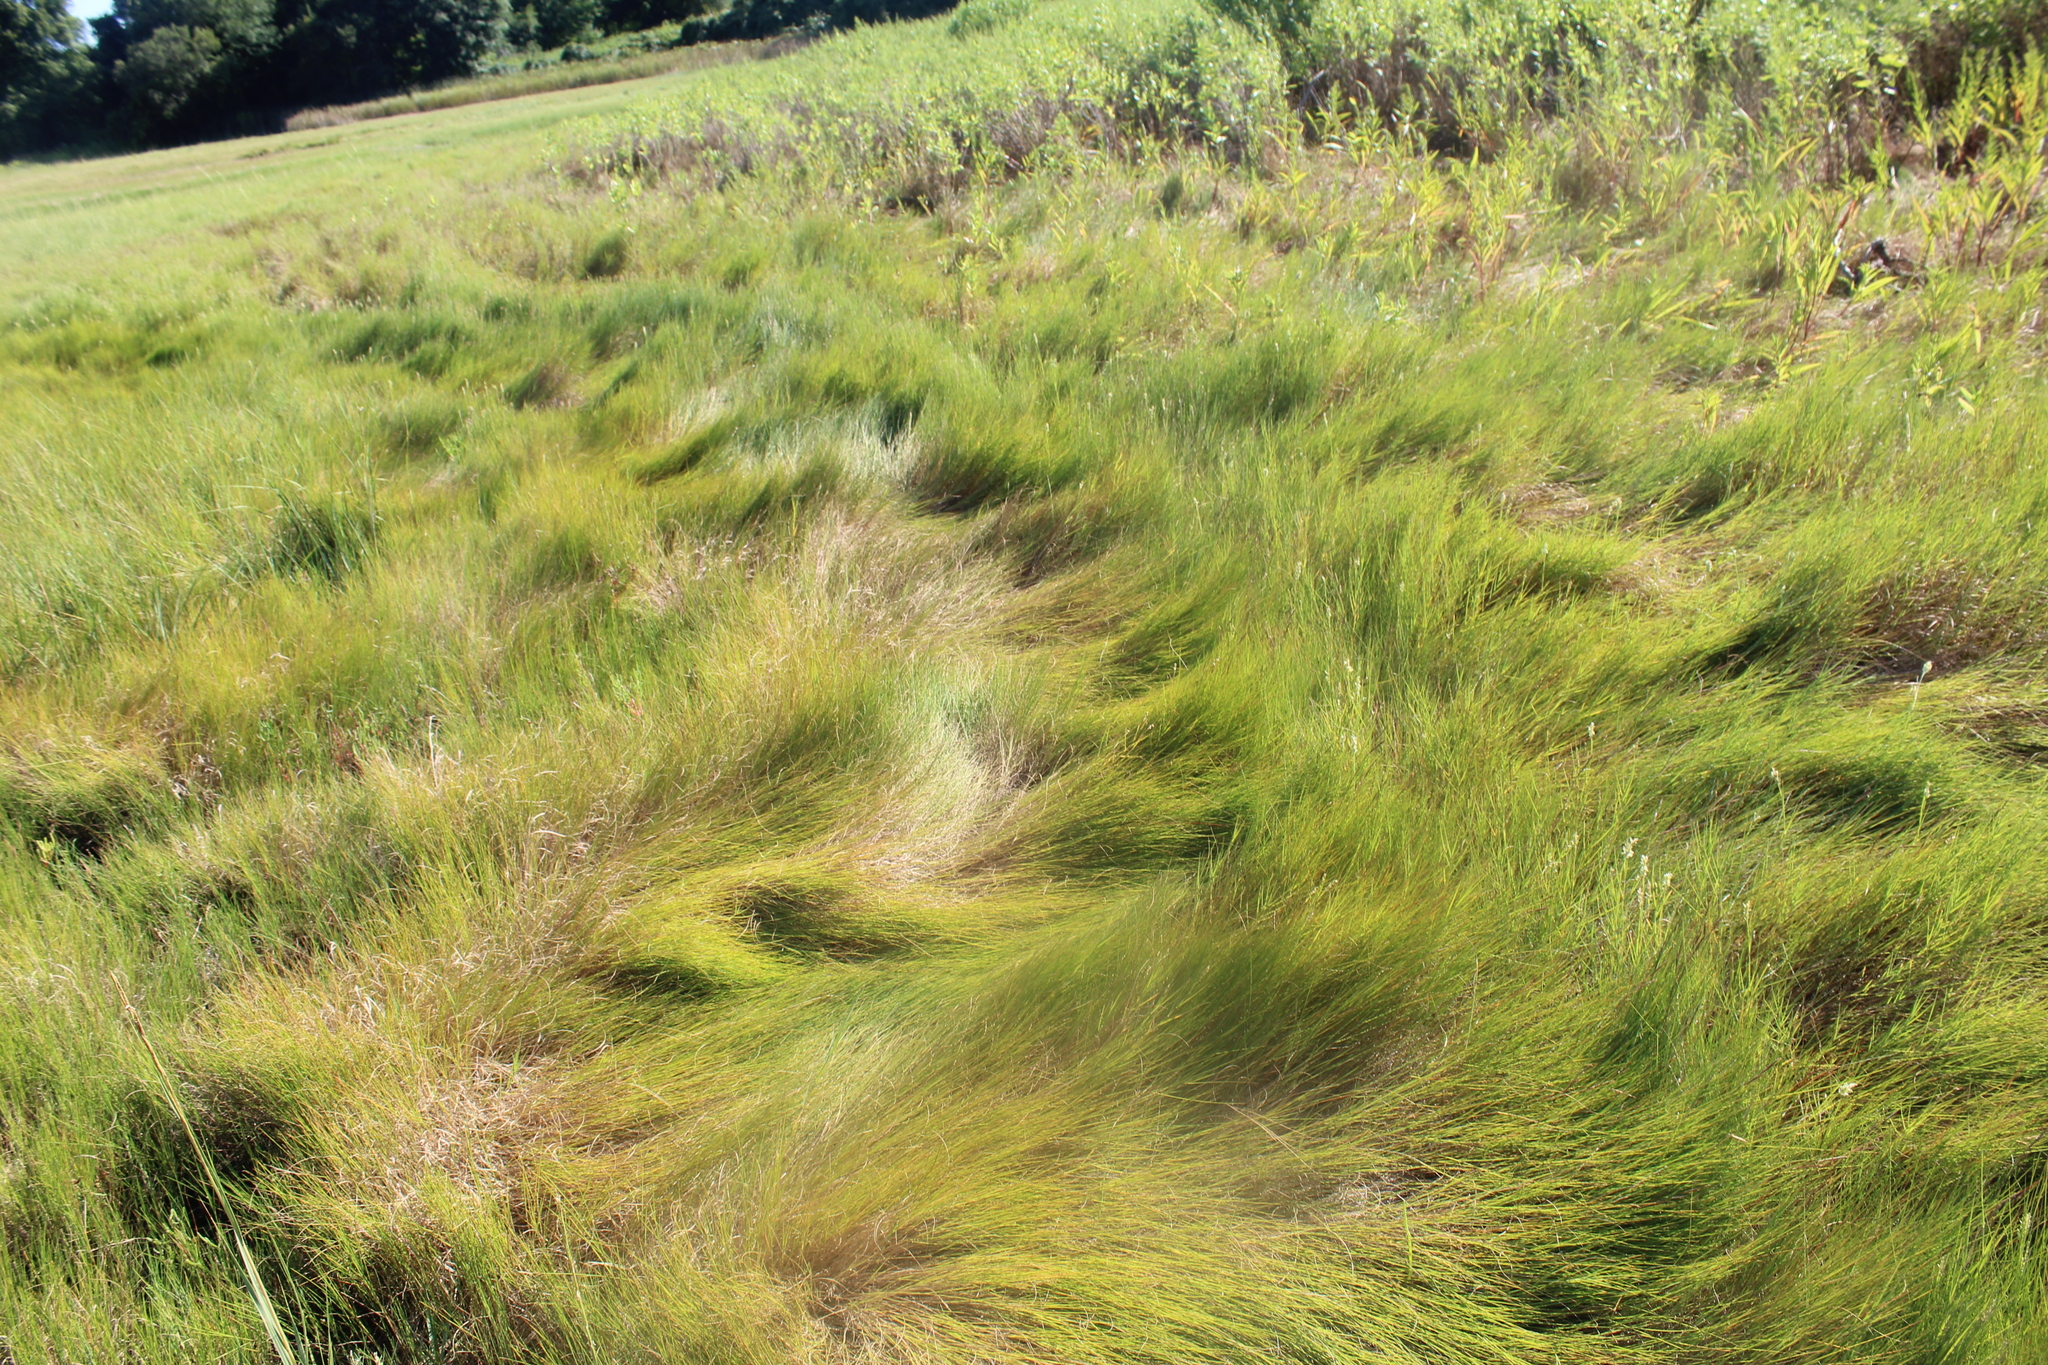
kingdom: Plantae
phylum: Tracheophyta
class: Liliopsida
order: Poales
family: Poaceae
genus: Sporobolus
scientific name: Sporobolus pumilus
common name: Highwater grass
